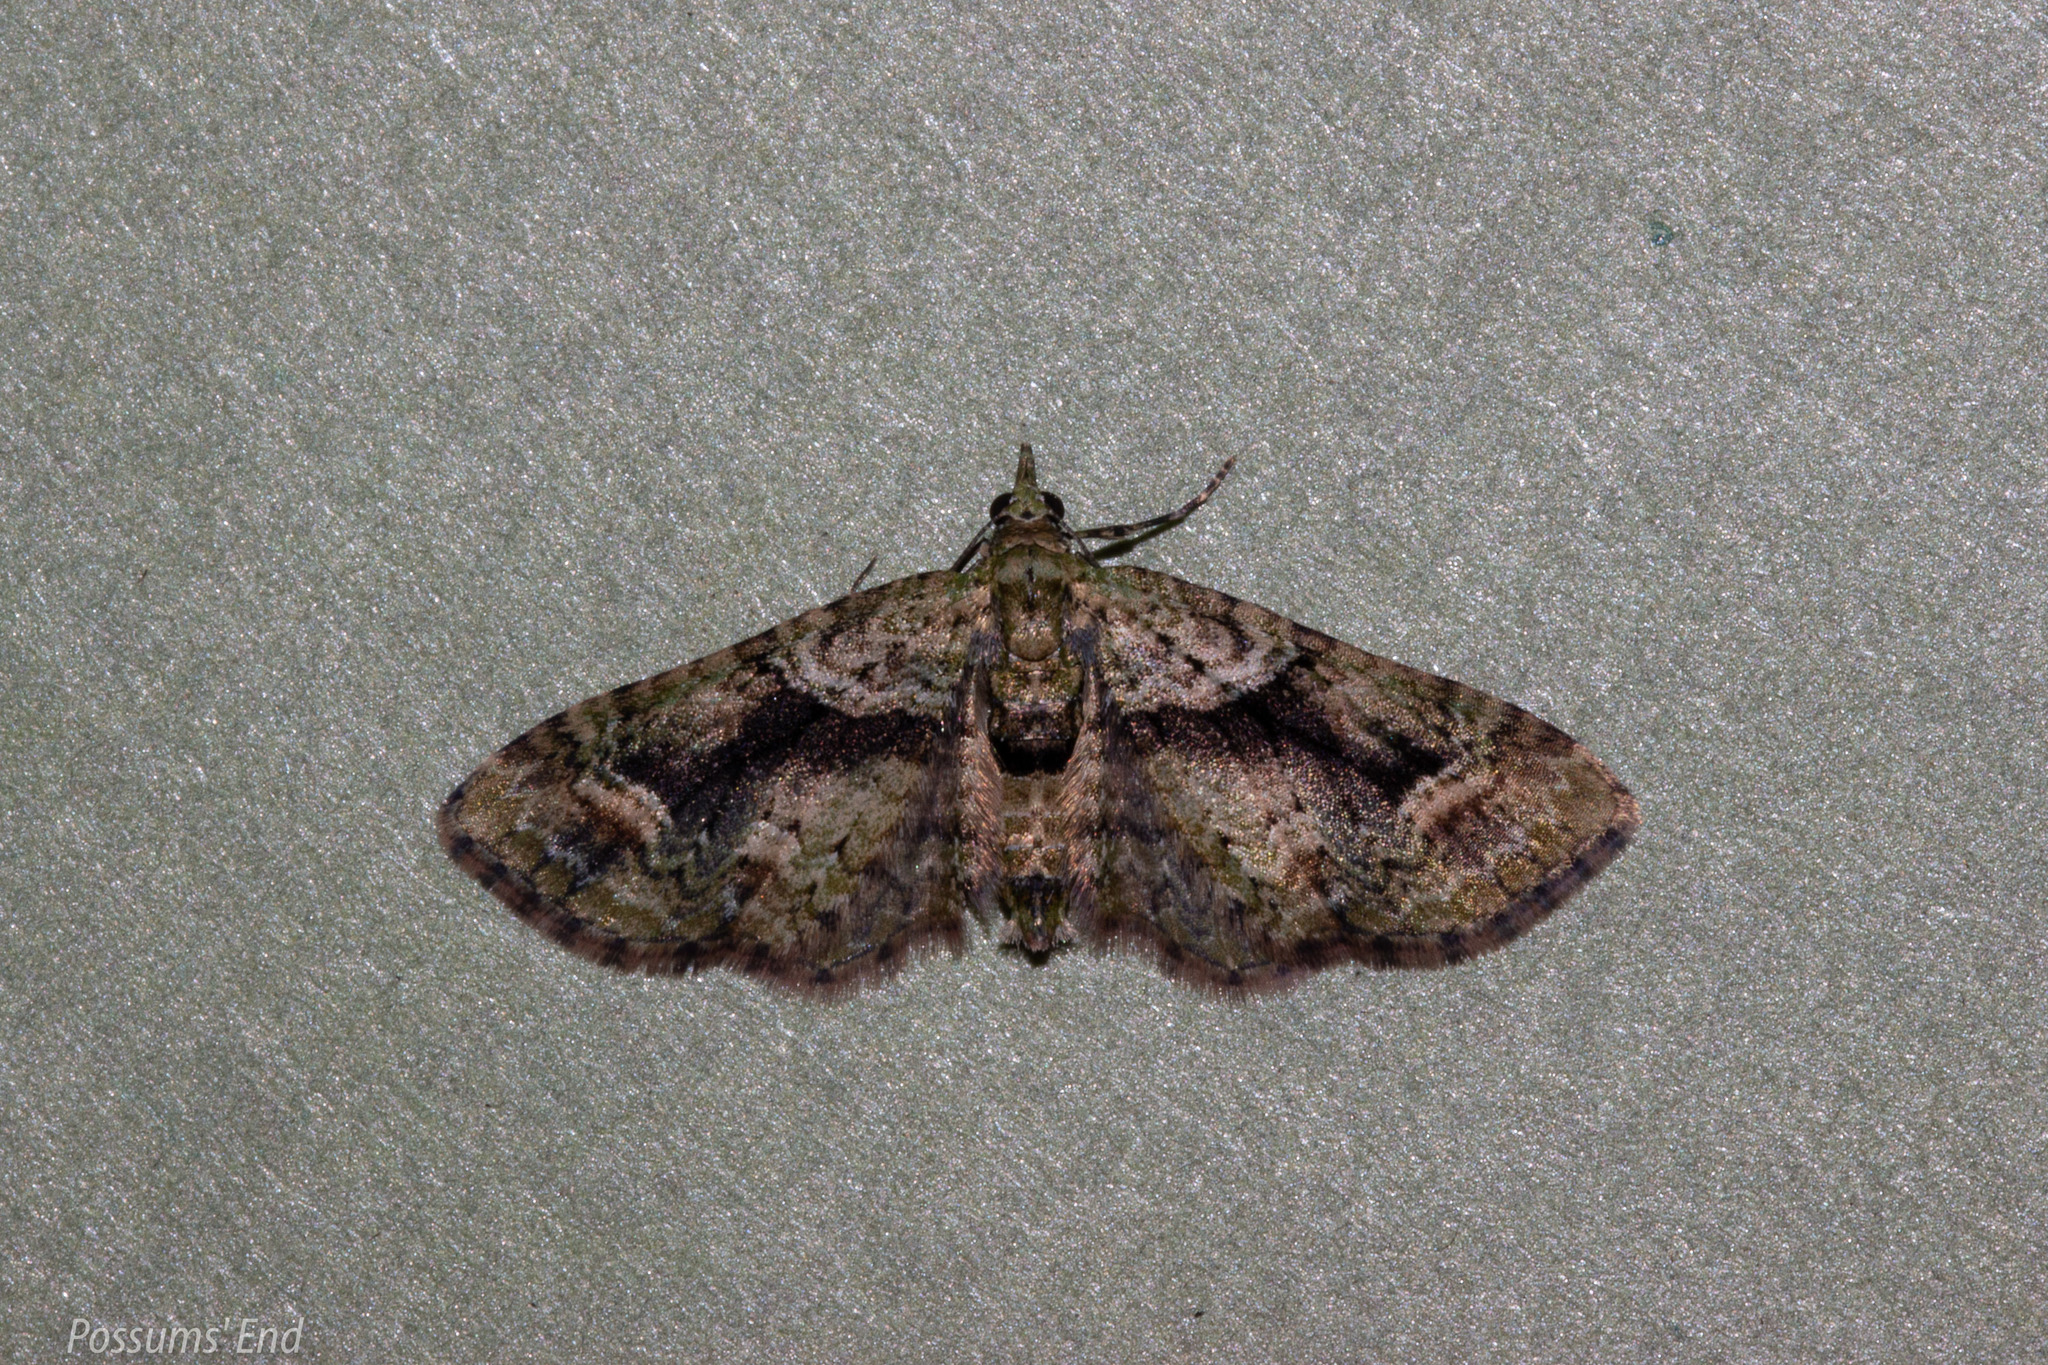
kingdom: Animalia
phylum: Arthropoda
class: Insecta
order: Lepidoptera
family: Geometridae
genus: Pasiphila
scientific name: Pasiphila suffusa
